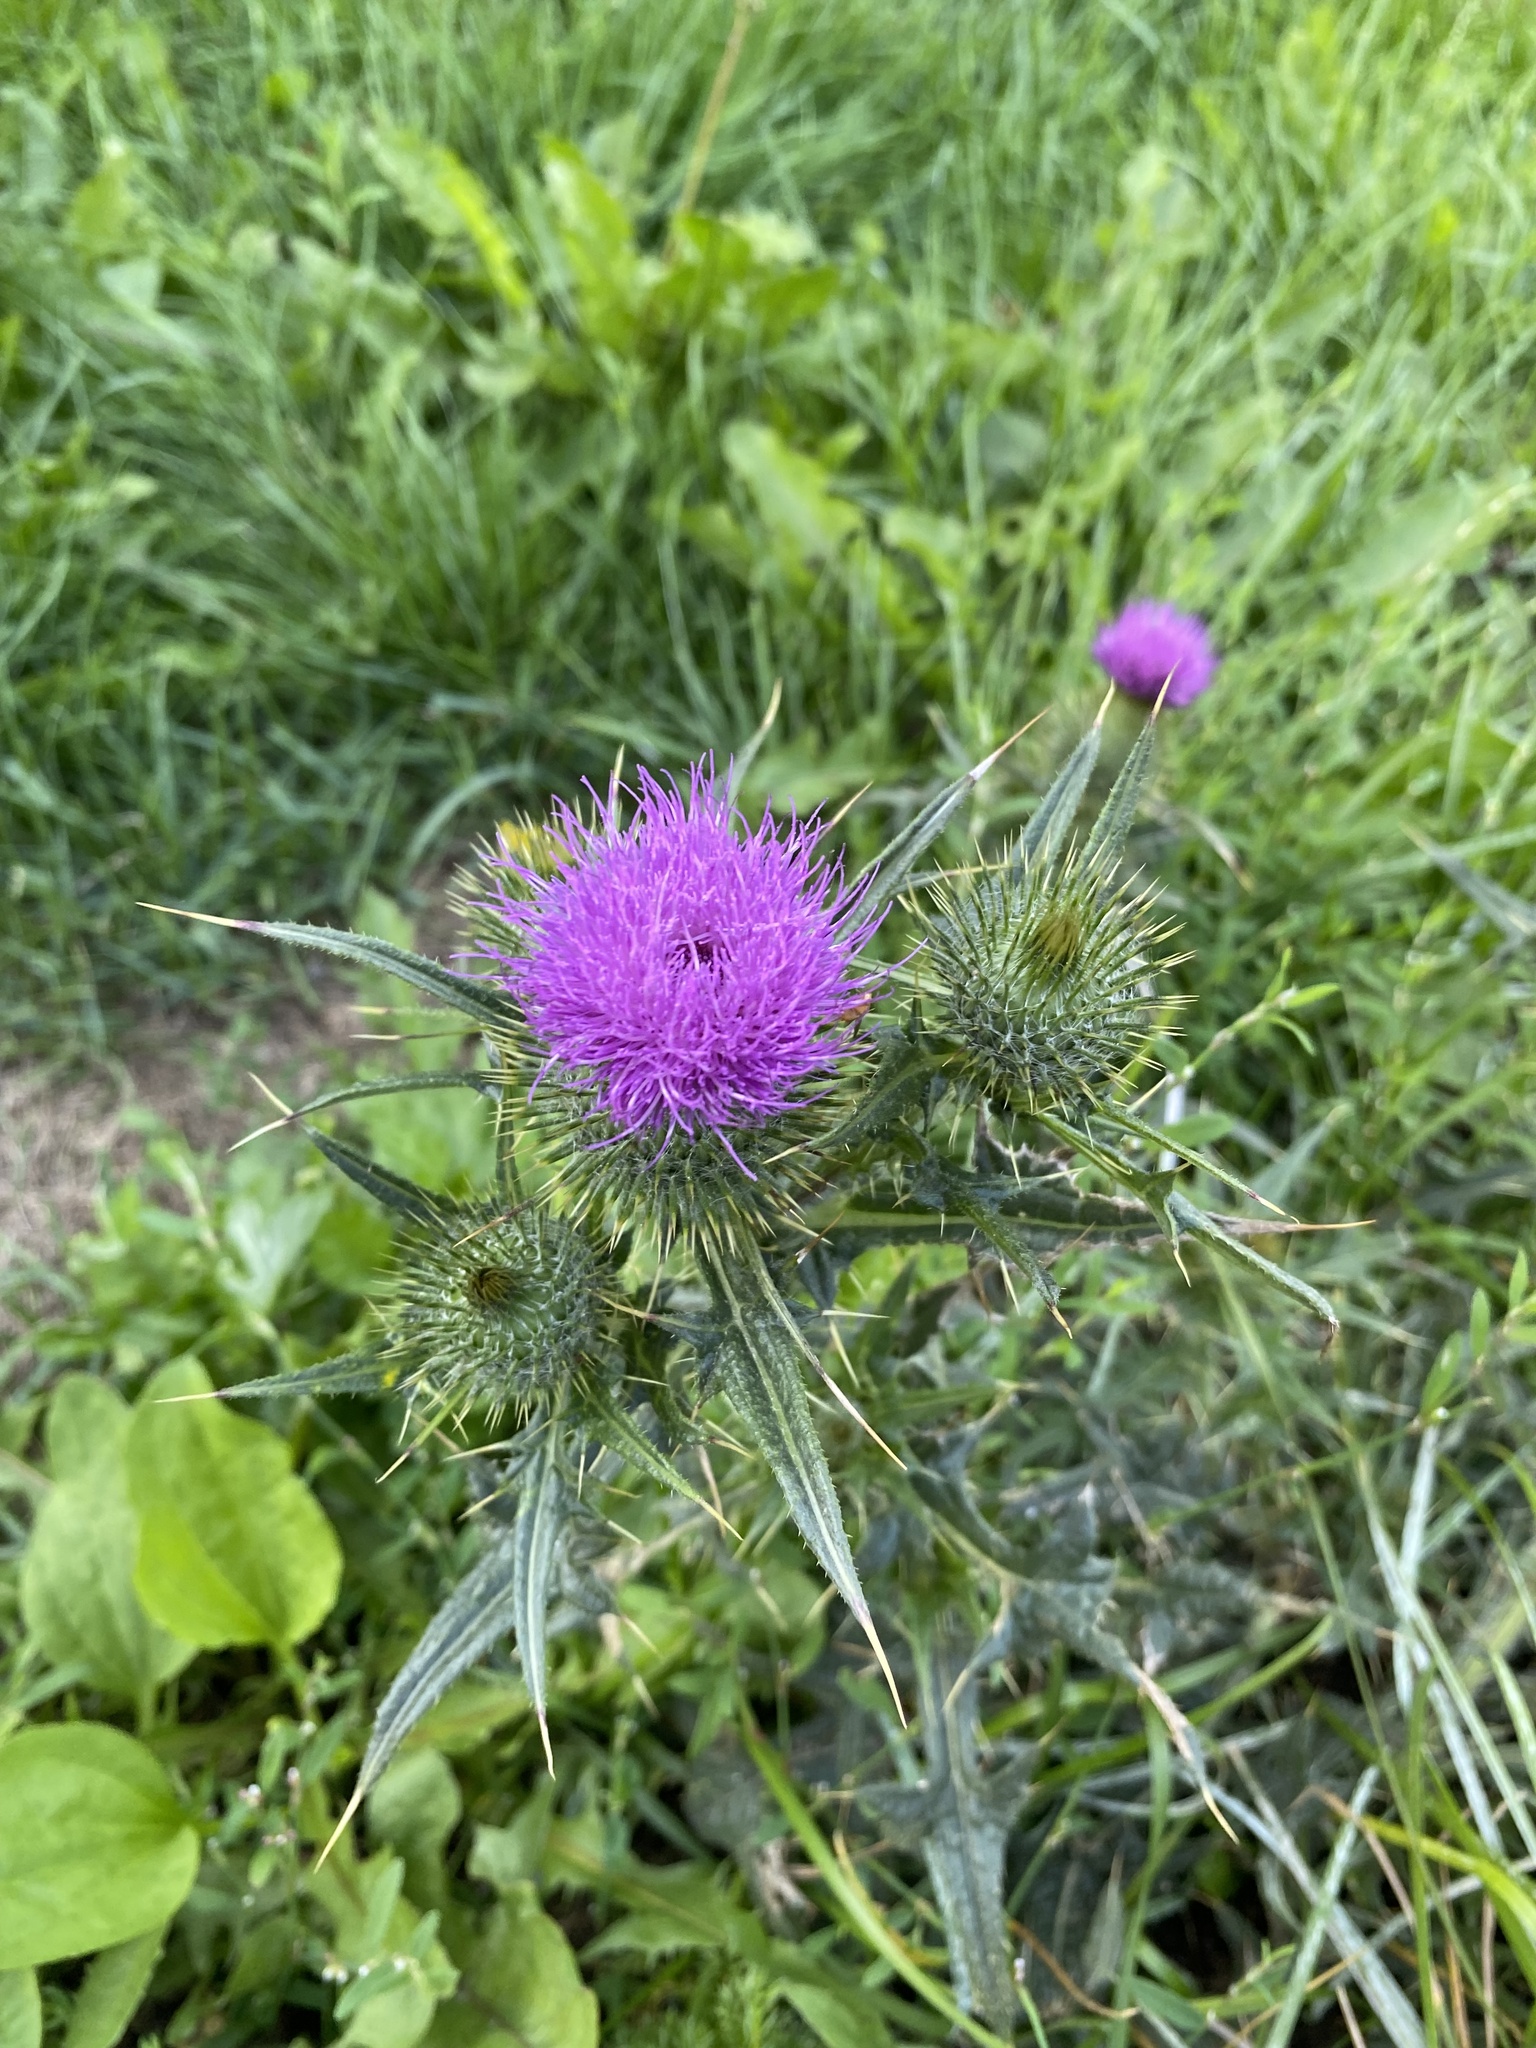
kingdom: Plantae
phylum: Tracheophyta
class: Magnoliopsida
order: Asterales
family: Asteraceae
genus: Cirsium
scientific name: Cirsium vulgare
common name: Bull thistle
